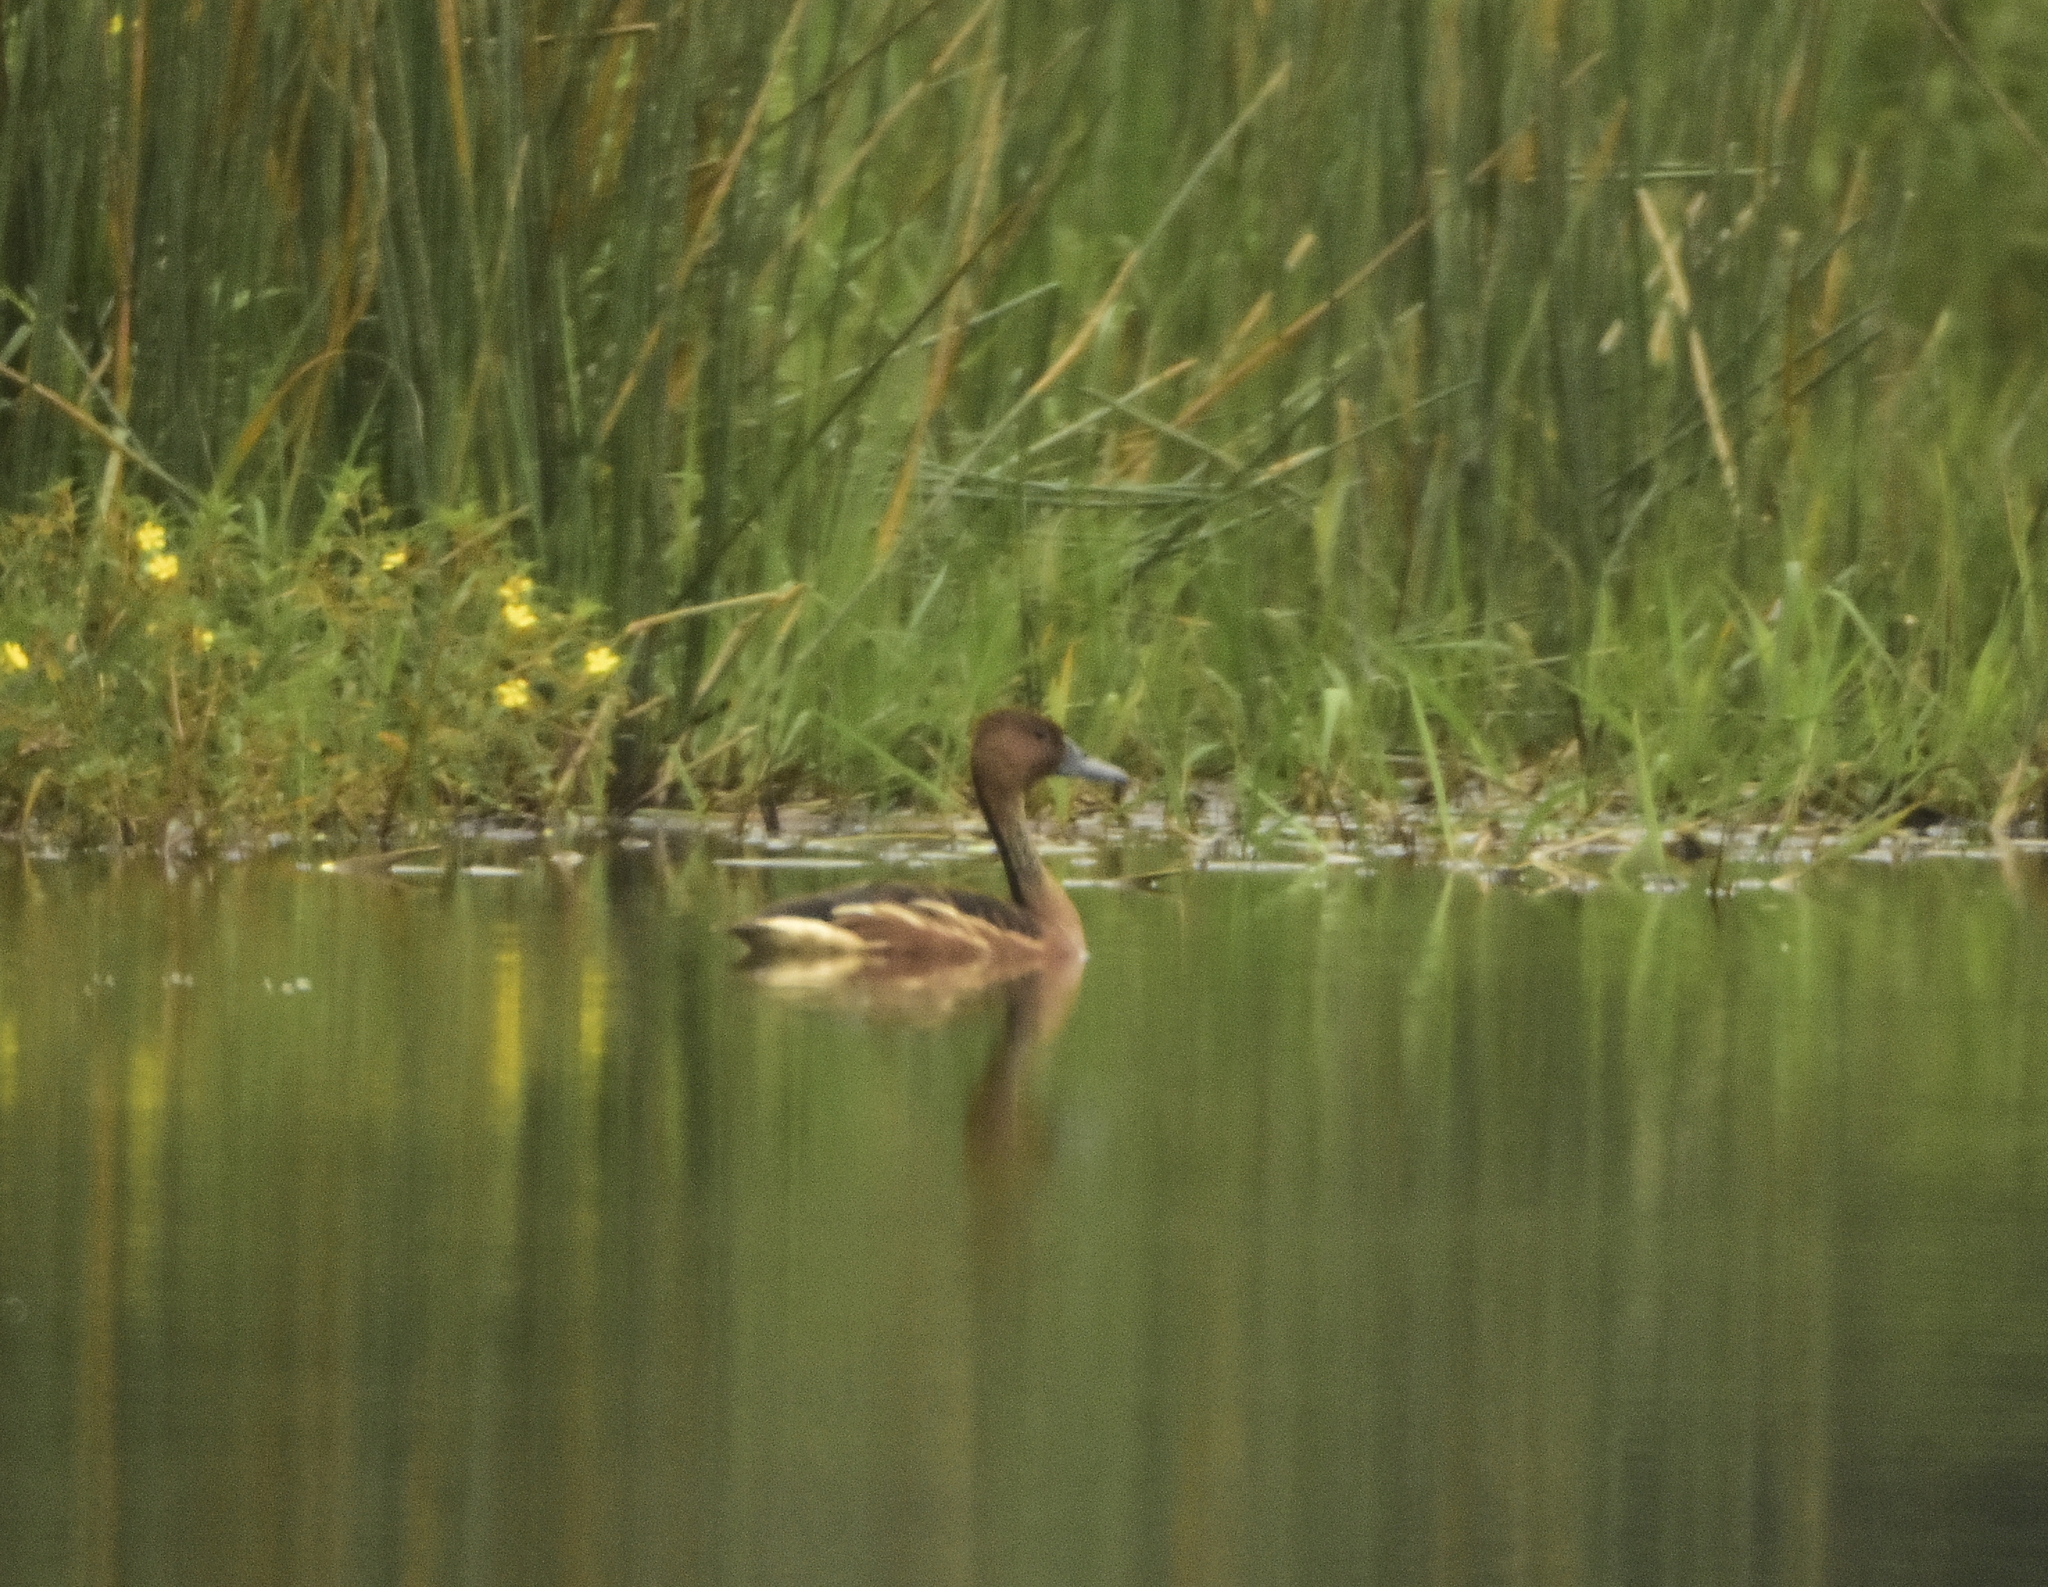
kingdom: Animalia
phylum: Chordata
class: Aves
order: Anseriformes
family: Anatidae
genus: Dendrocygna
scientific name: Dendrocygna bicolor
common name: Fulvous whistling duck
